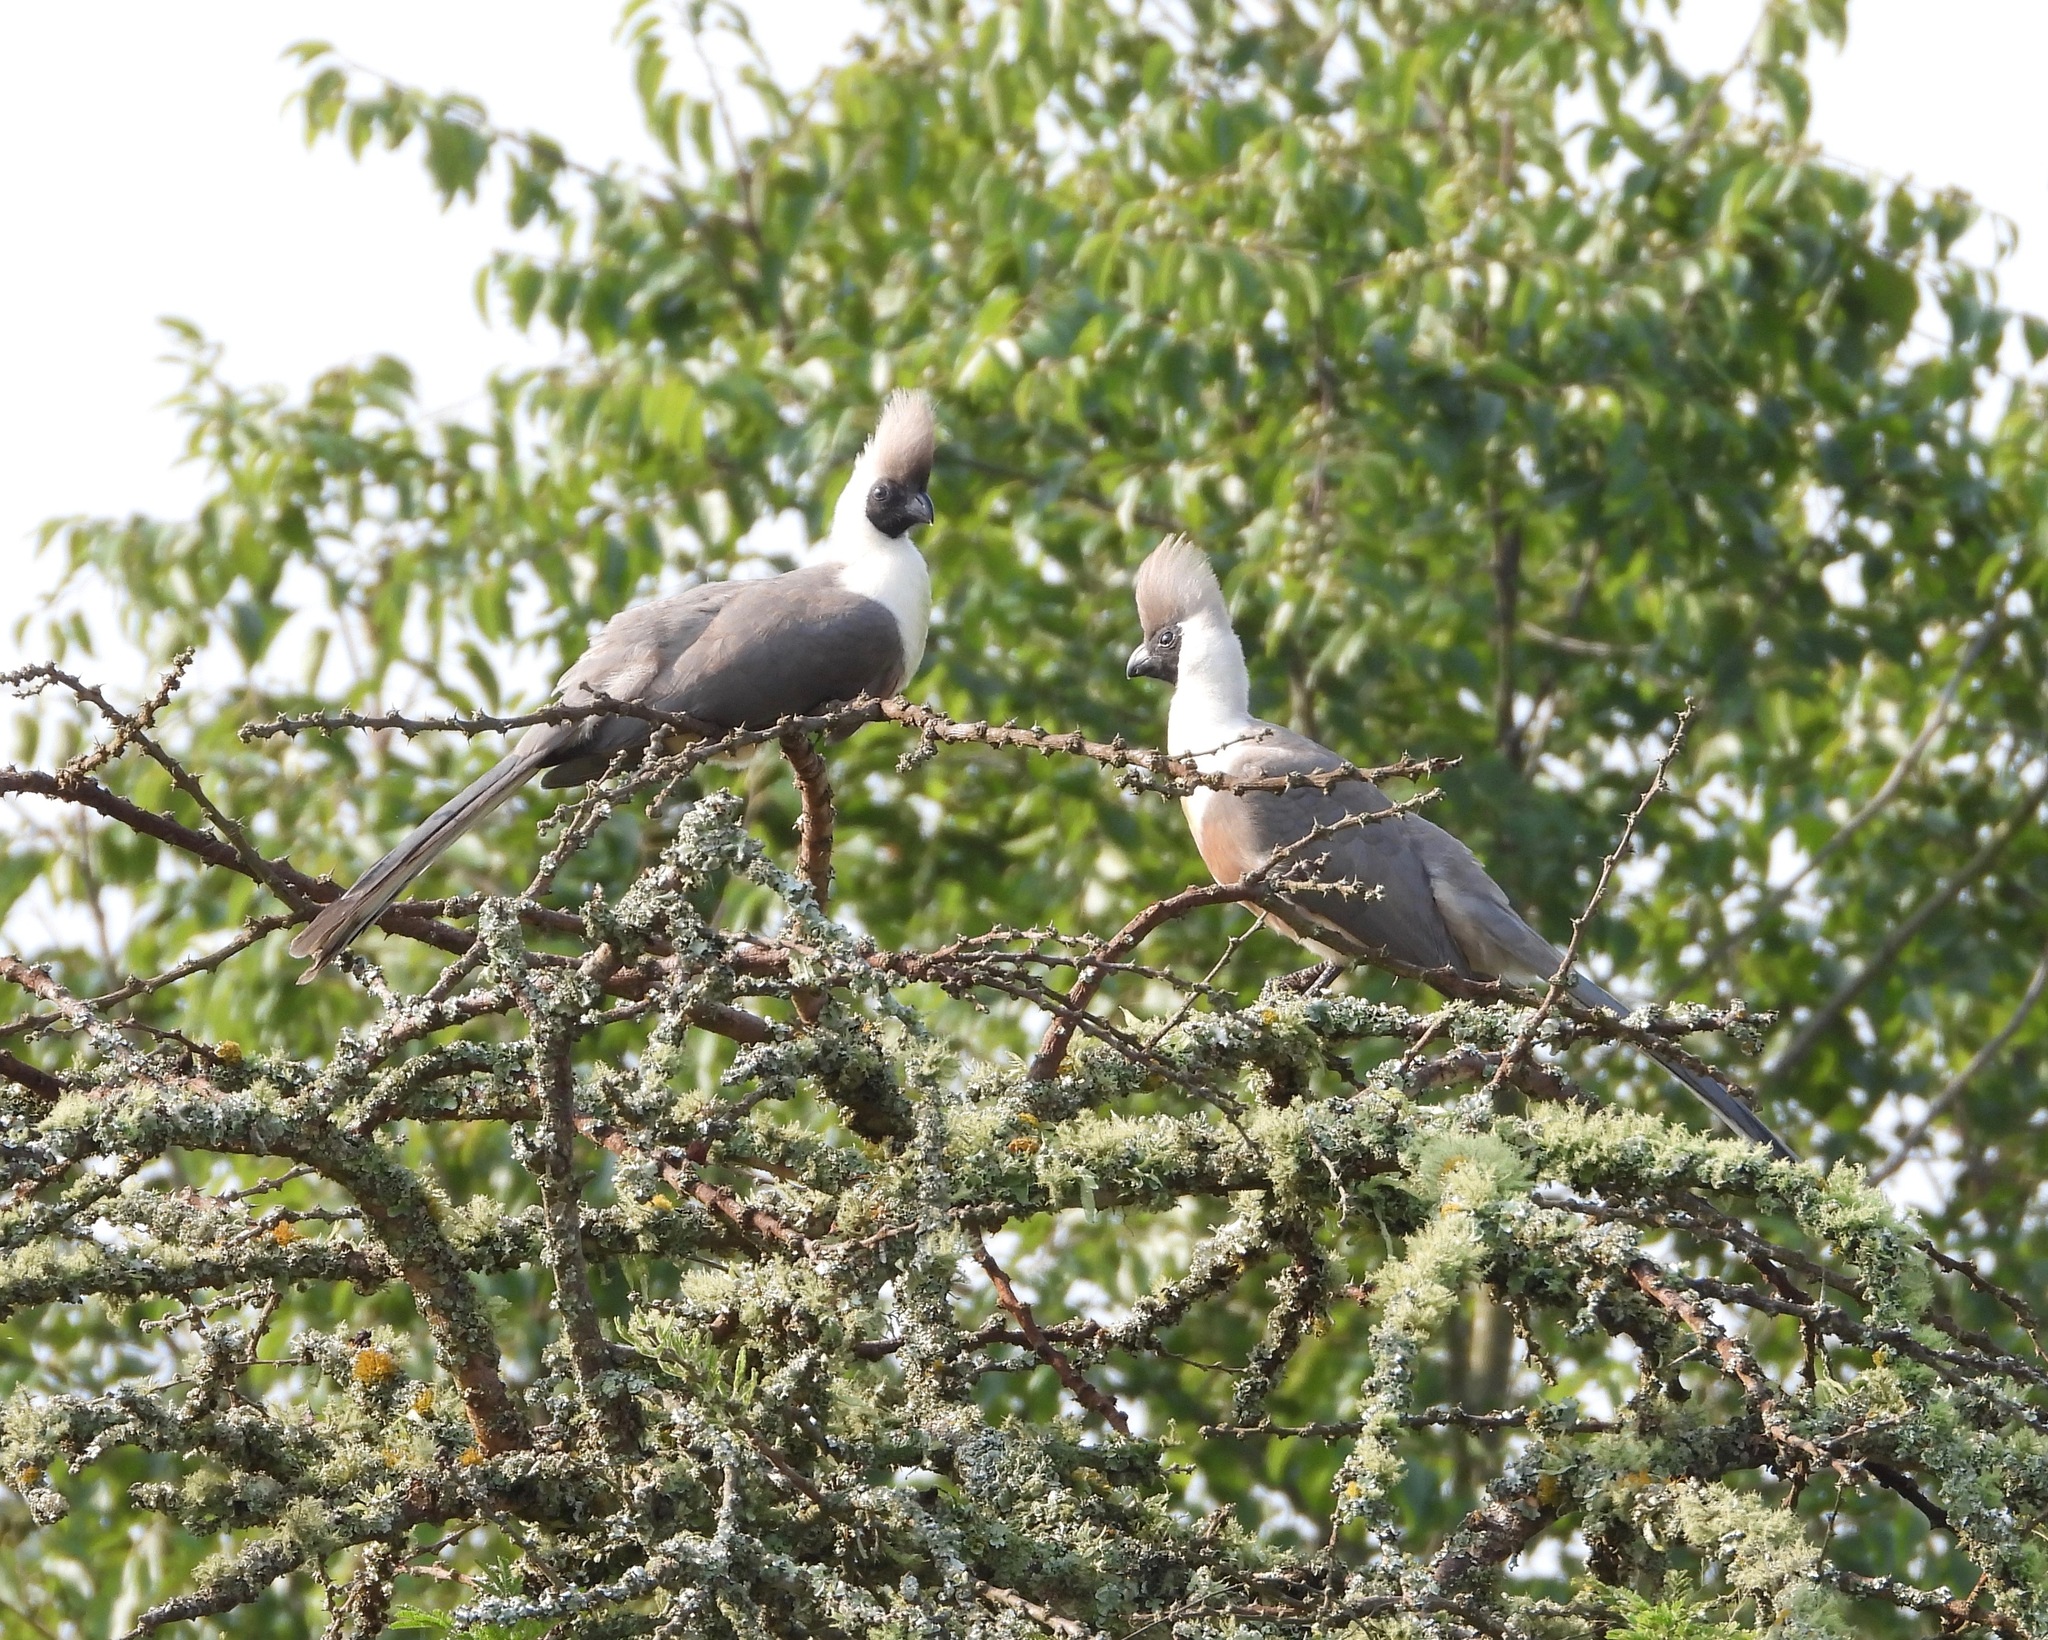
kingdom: Animalia
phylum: Chordata
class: Aves
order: Musophagiformes
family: Musophagidae
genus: Corythaixoides
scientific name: Corythaixoides personatus
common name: Bare-faced go-away-bird
